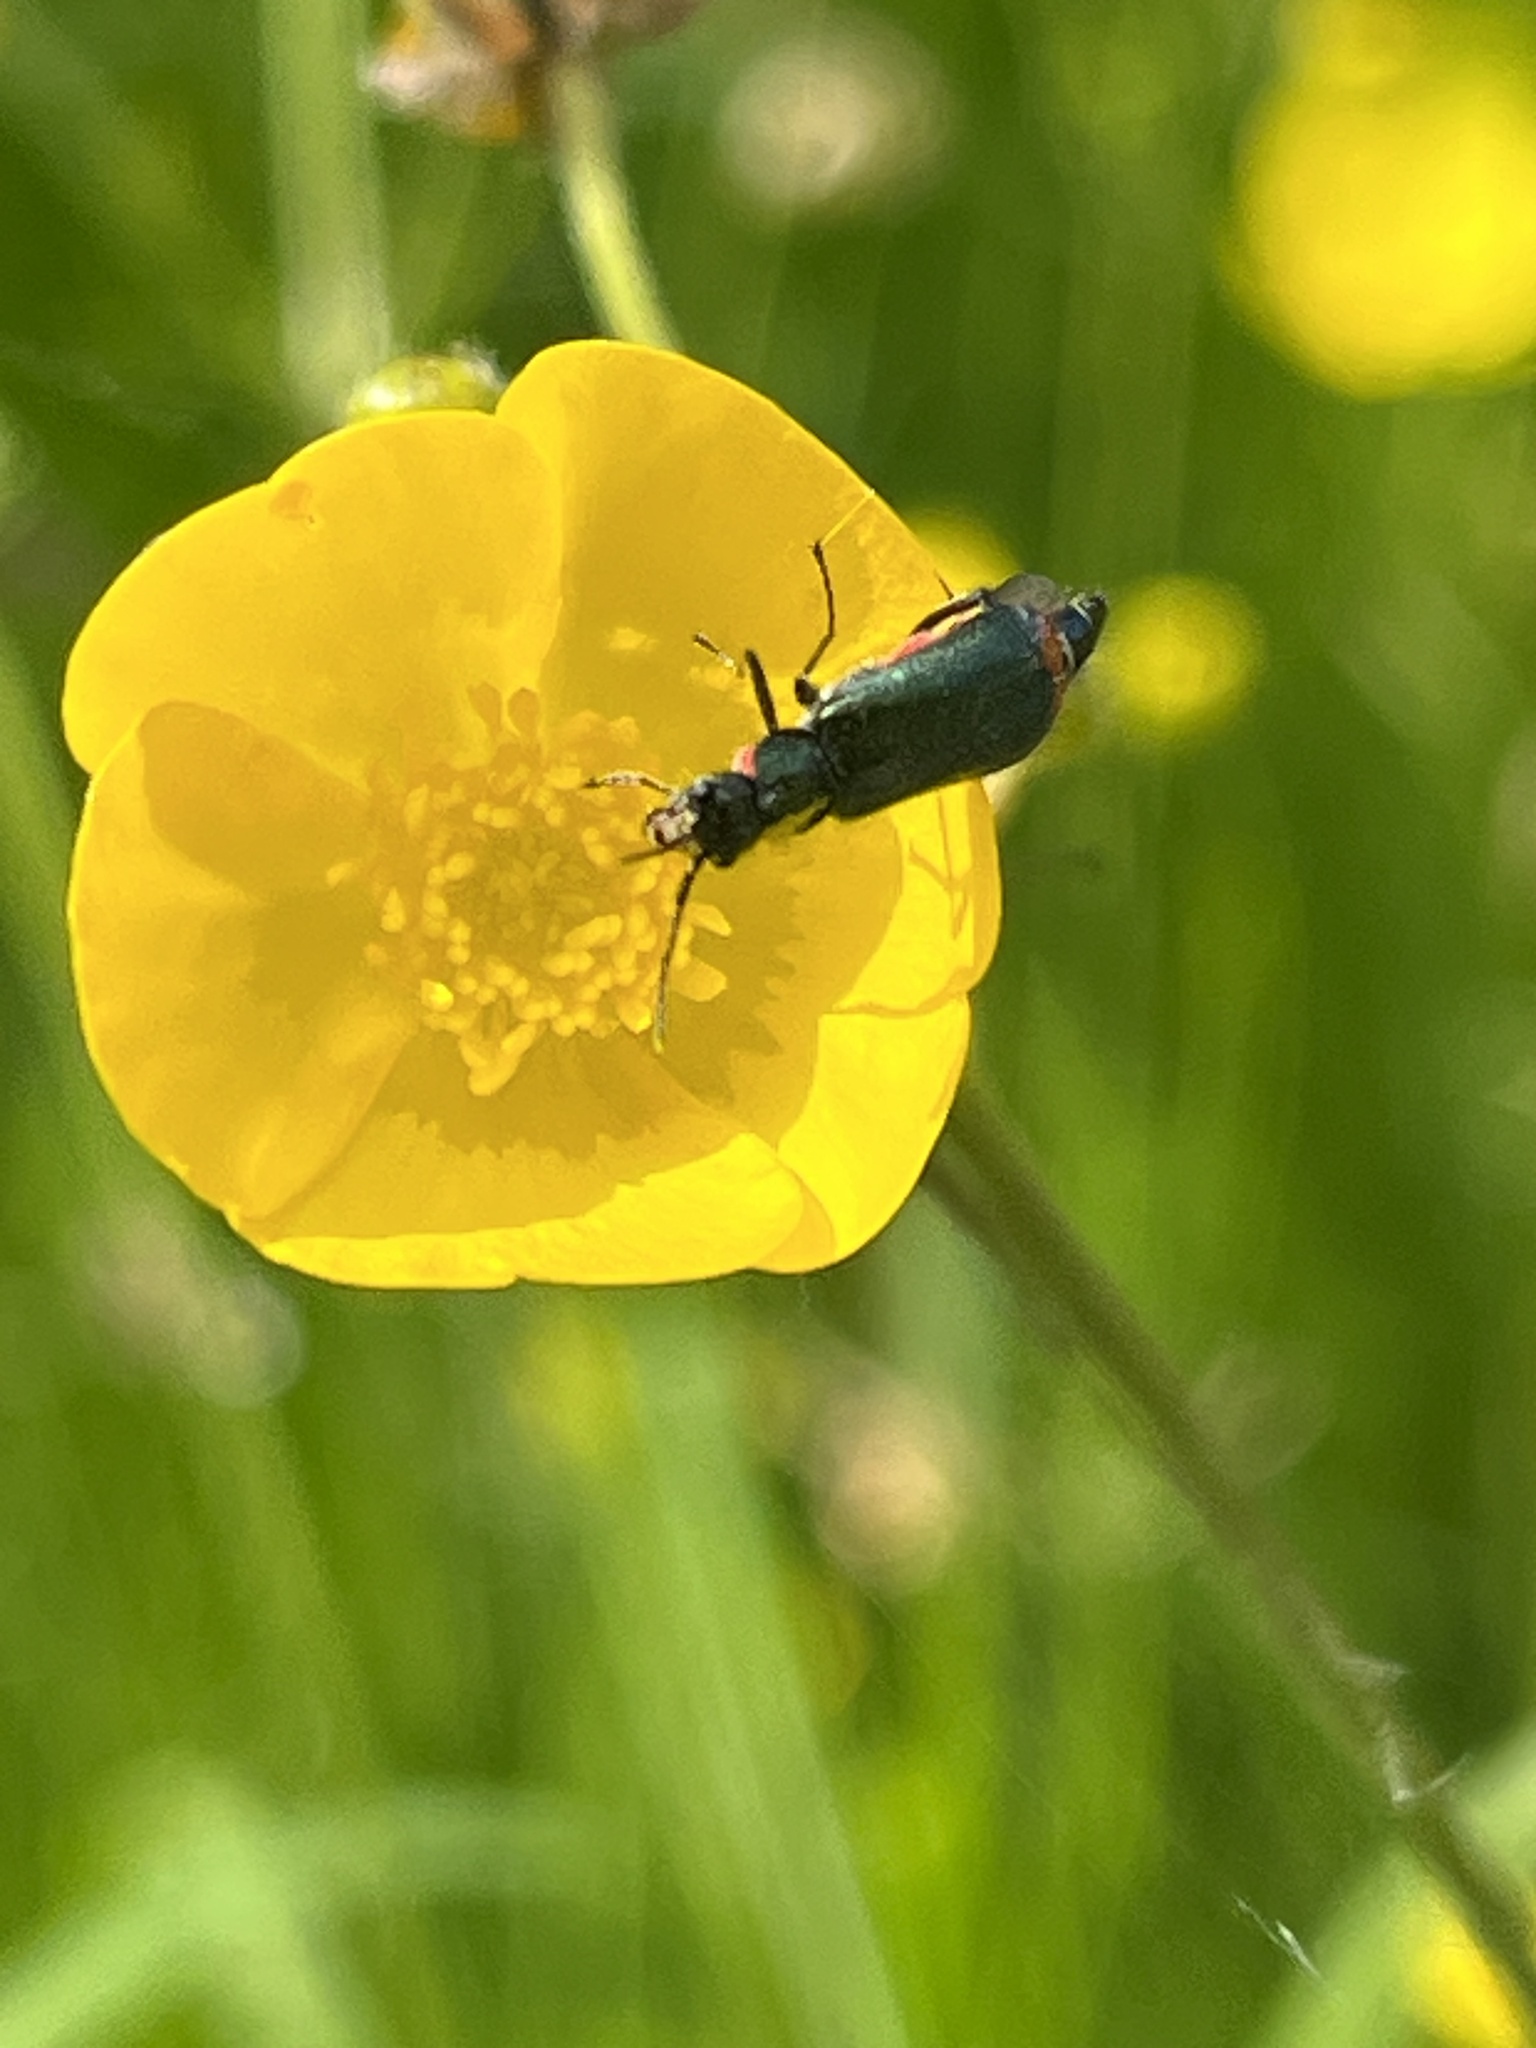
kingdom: Animalia
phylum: Arthropoda
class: Insecta
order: Coleoptera
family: Melyridae
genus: Malachius
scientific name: Malachius bipustulatus
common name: Malachite beetle
